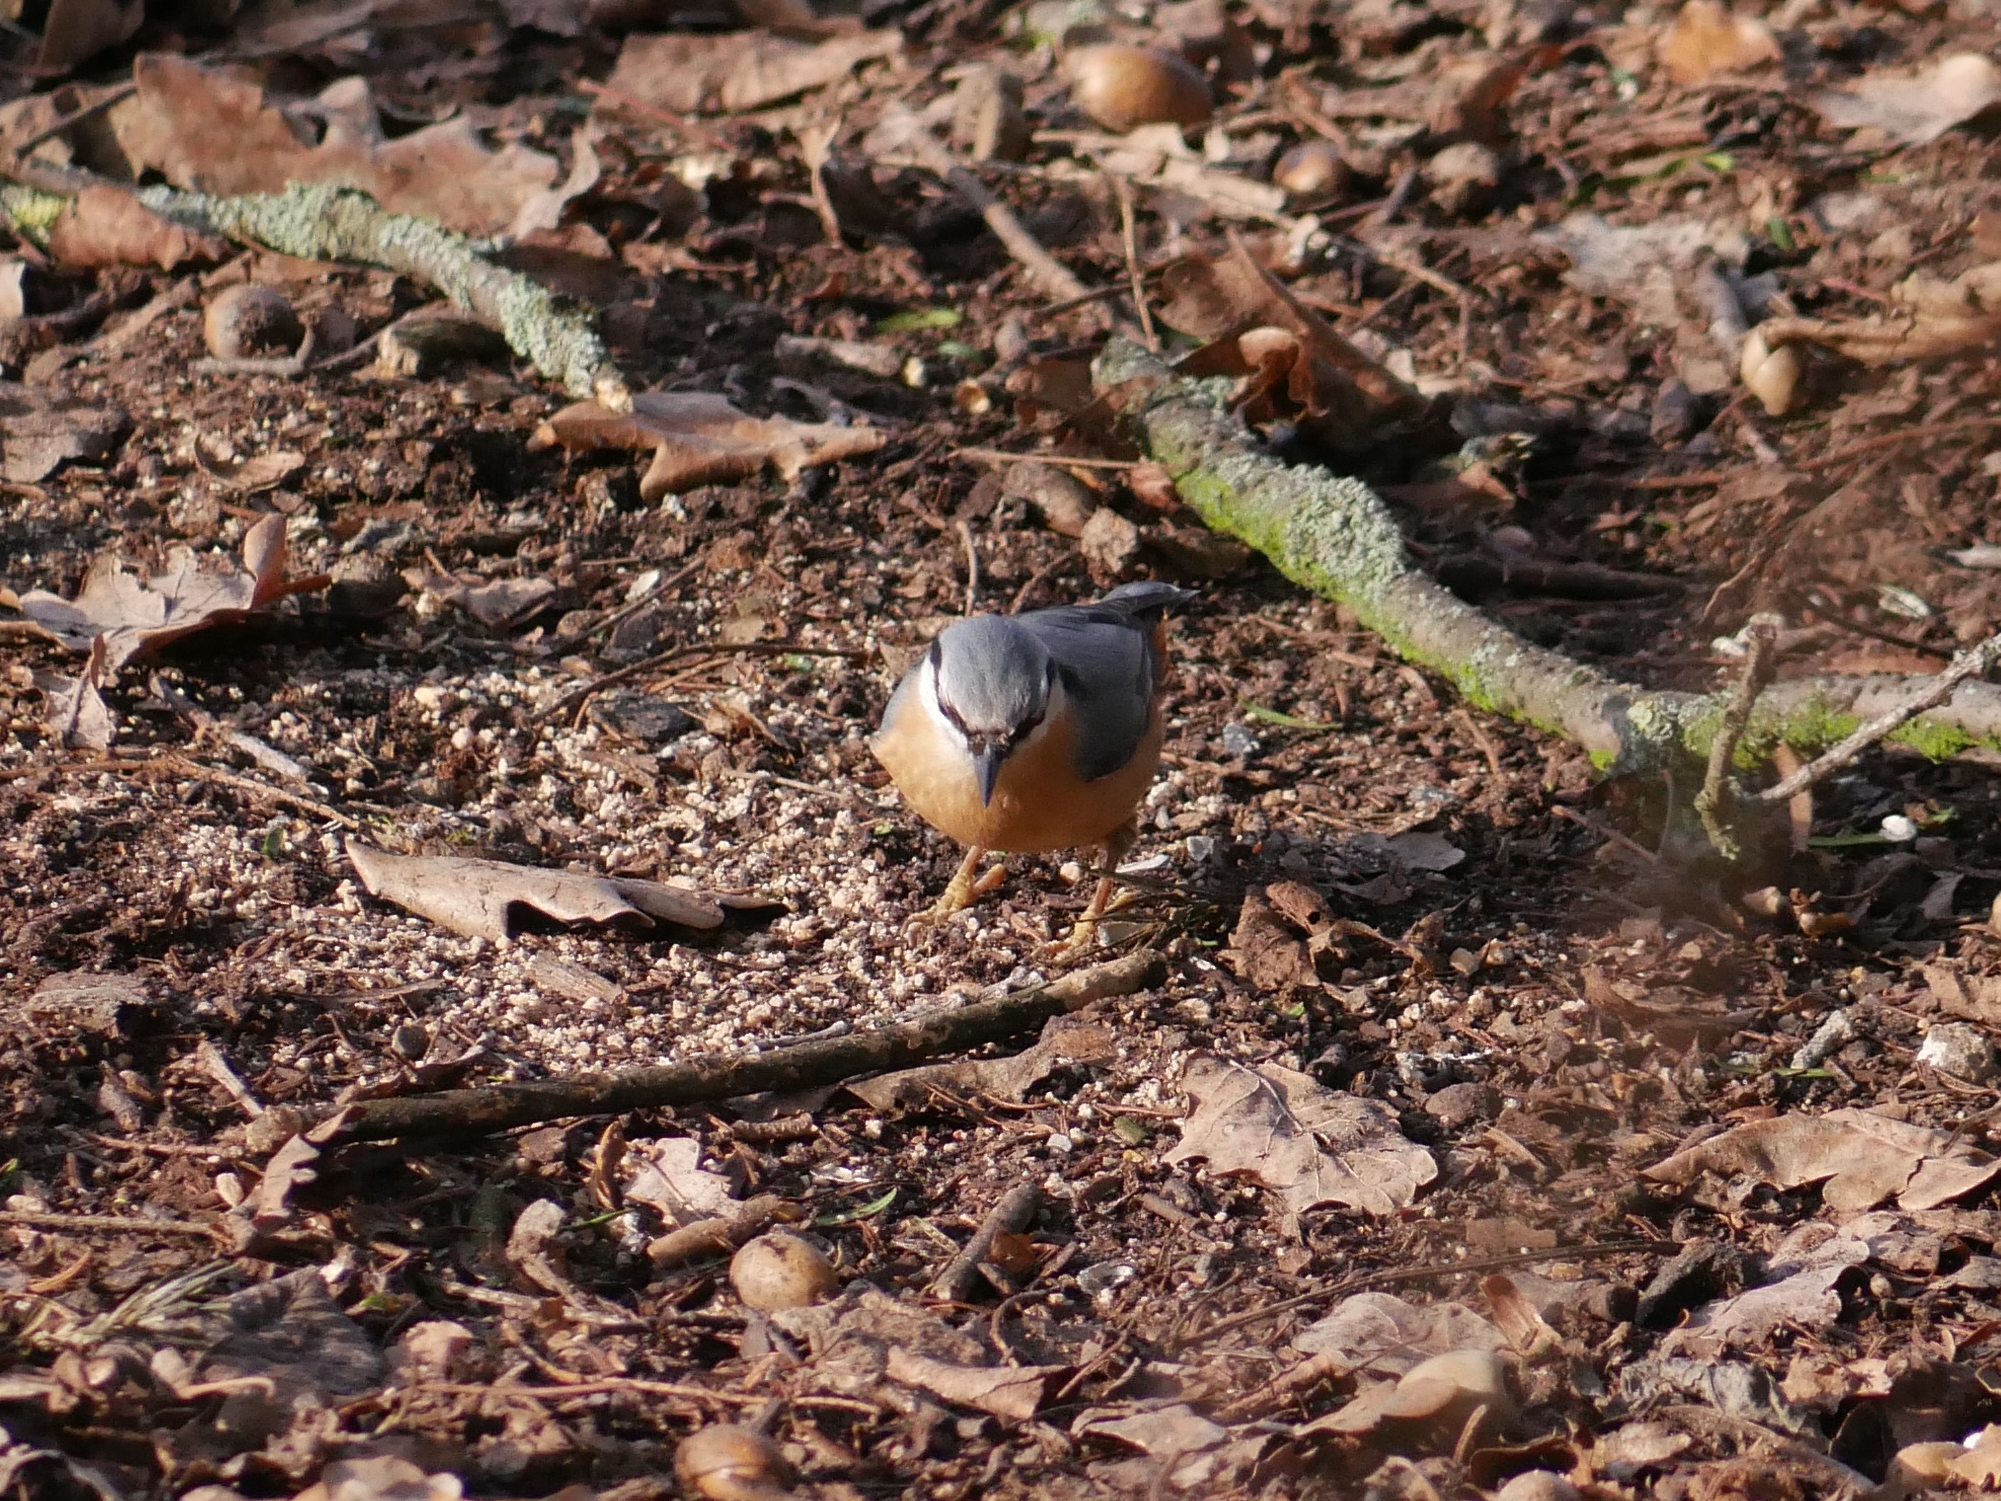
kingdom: Animalia
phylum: Chordata
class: Aves
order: Passeriformes
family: Sittidae
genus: Sitta
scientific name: Sitta europaea
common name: Eurasian nuthatch
